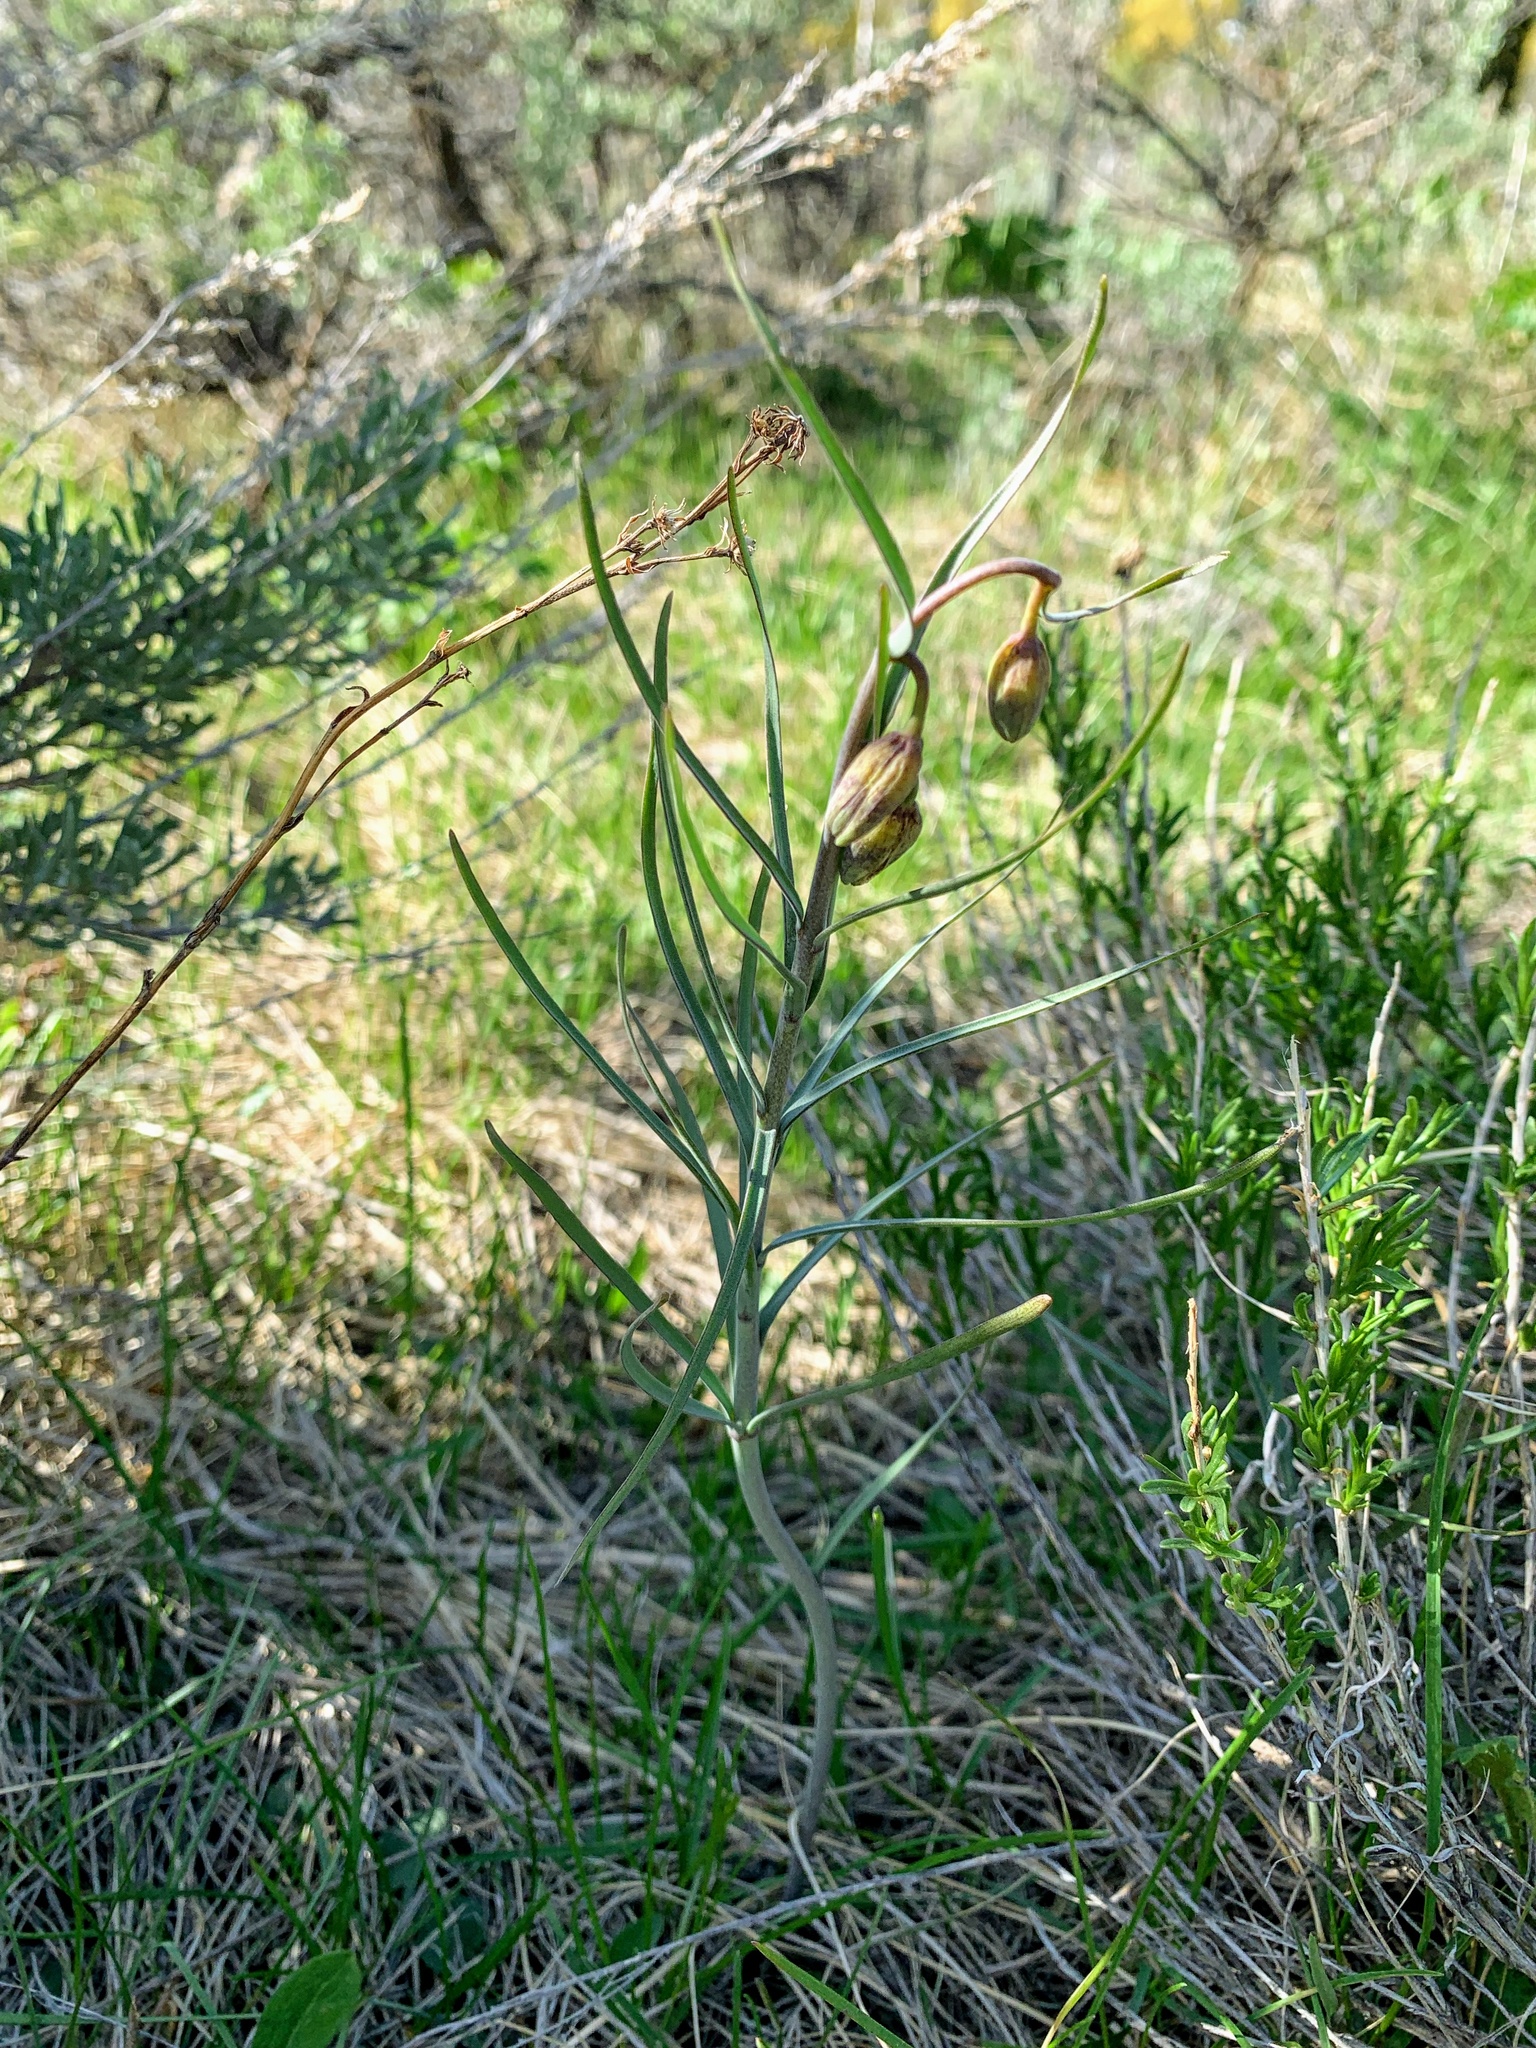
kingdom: Plantae
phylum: Tracheophyta
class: Liliopsida
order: Liliales
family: Liliaceae
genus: Fritillaria
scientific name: Fritillaria atropurpurea
